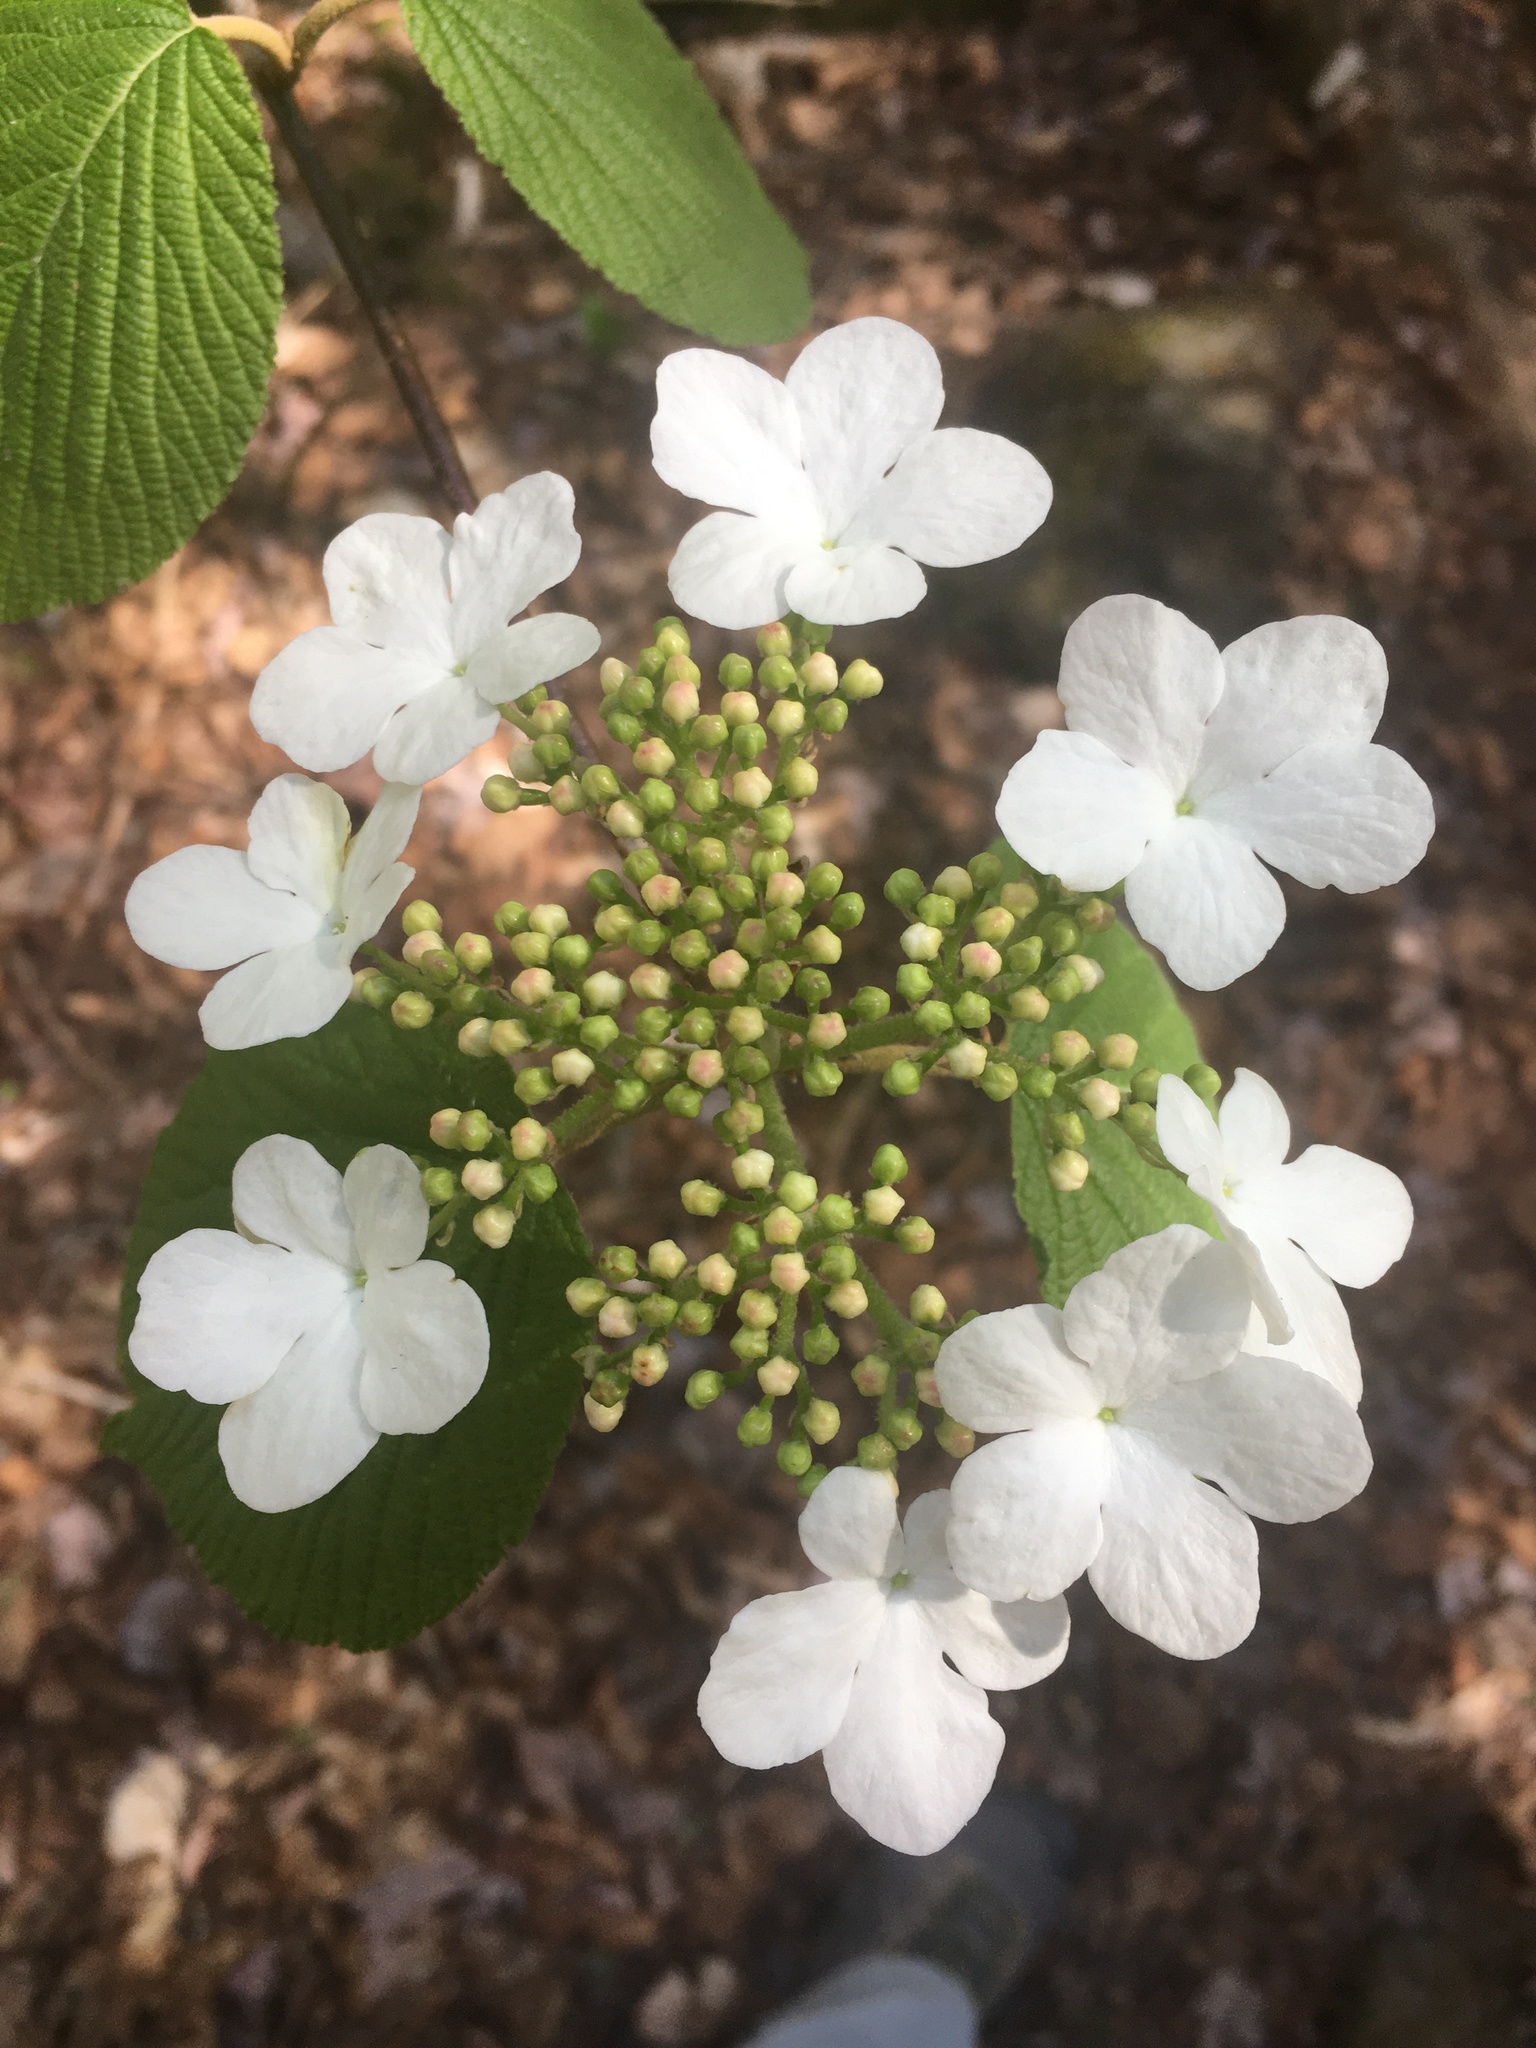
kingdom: Plantae
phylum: Tracheophyta
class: Magnoliopsida
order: Dipsacales
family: Viburnaceae
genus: Viburnum
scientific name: Viburnum lantanoides
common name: Hobblebush
